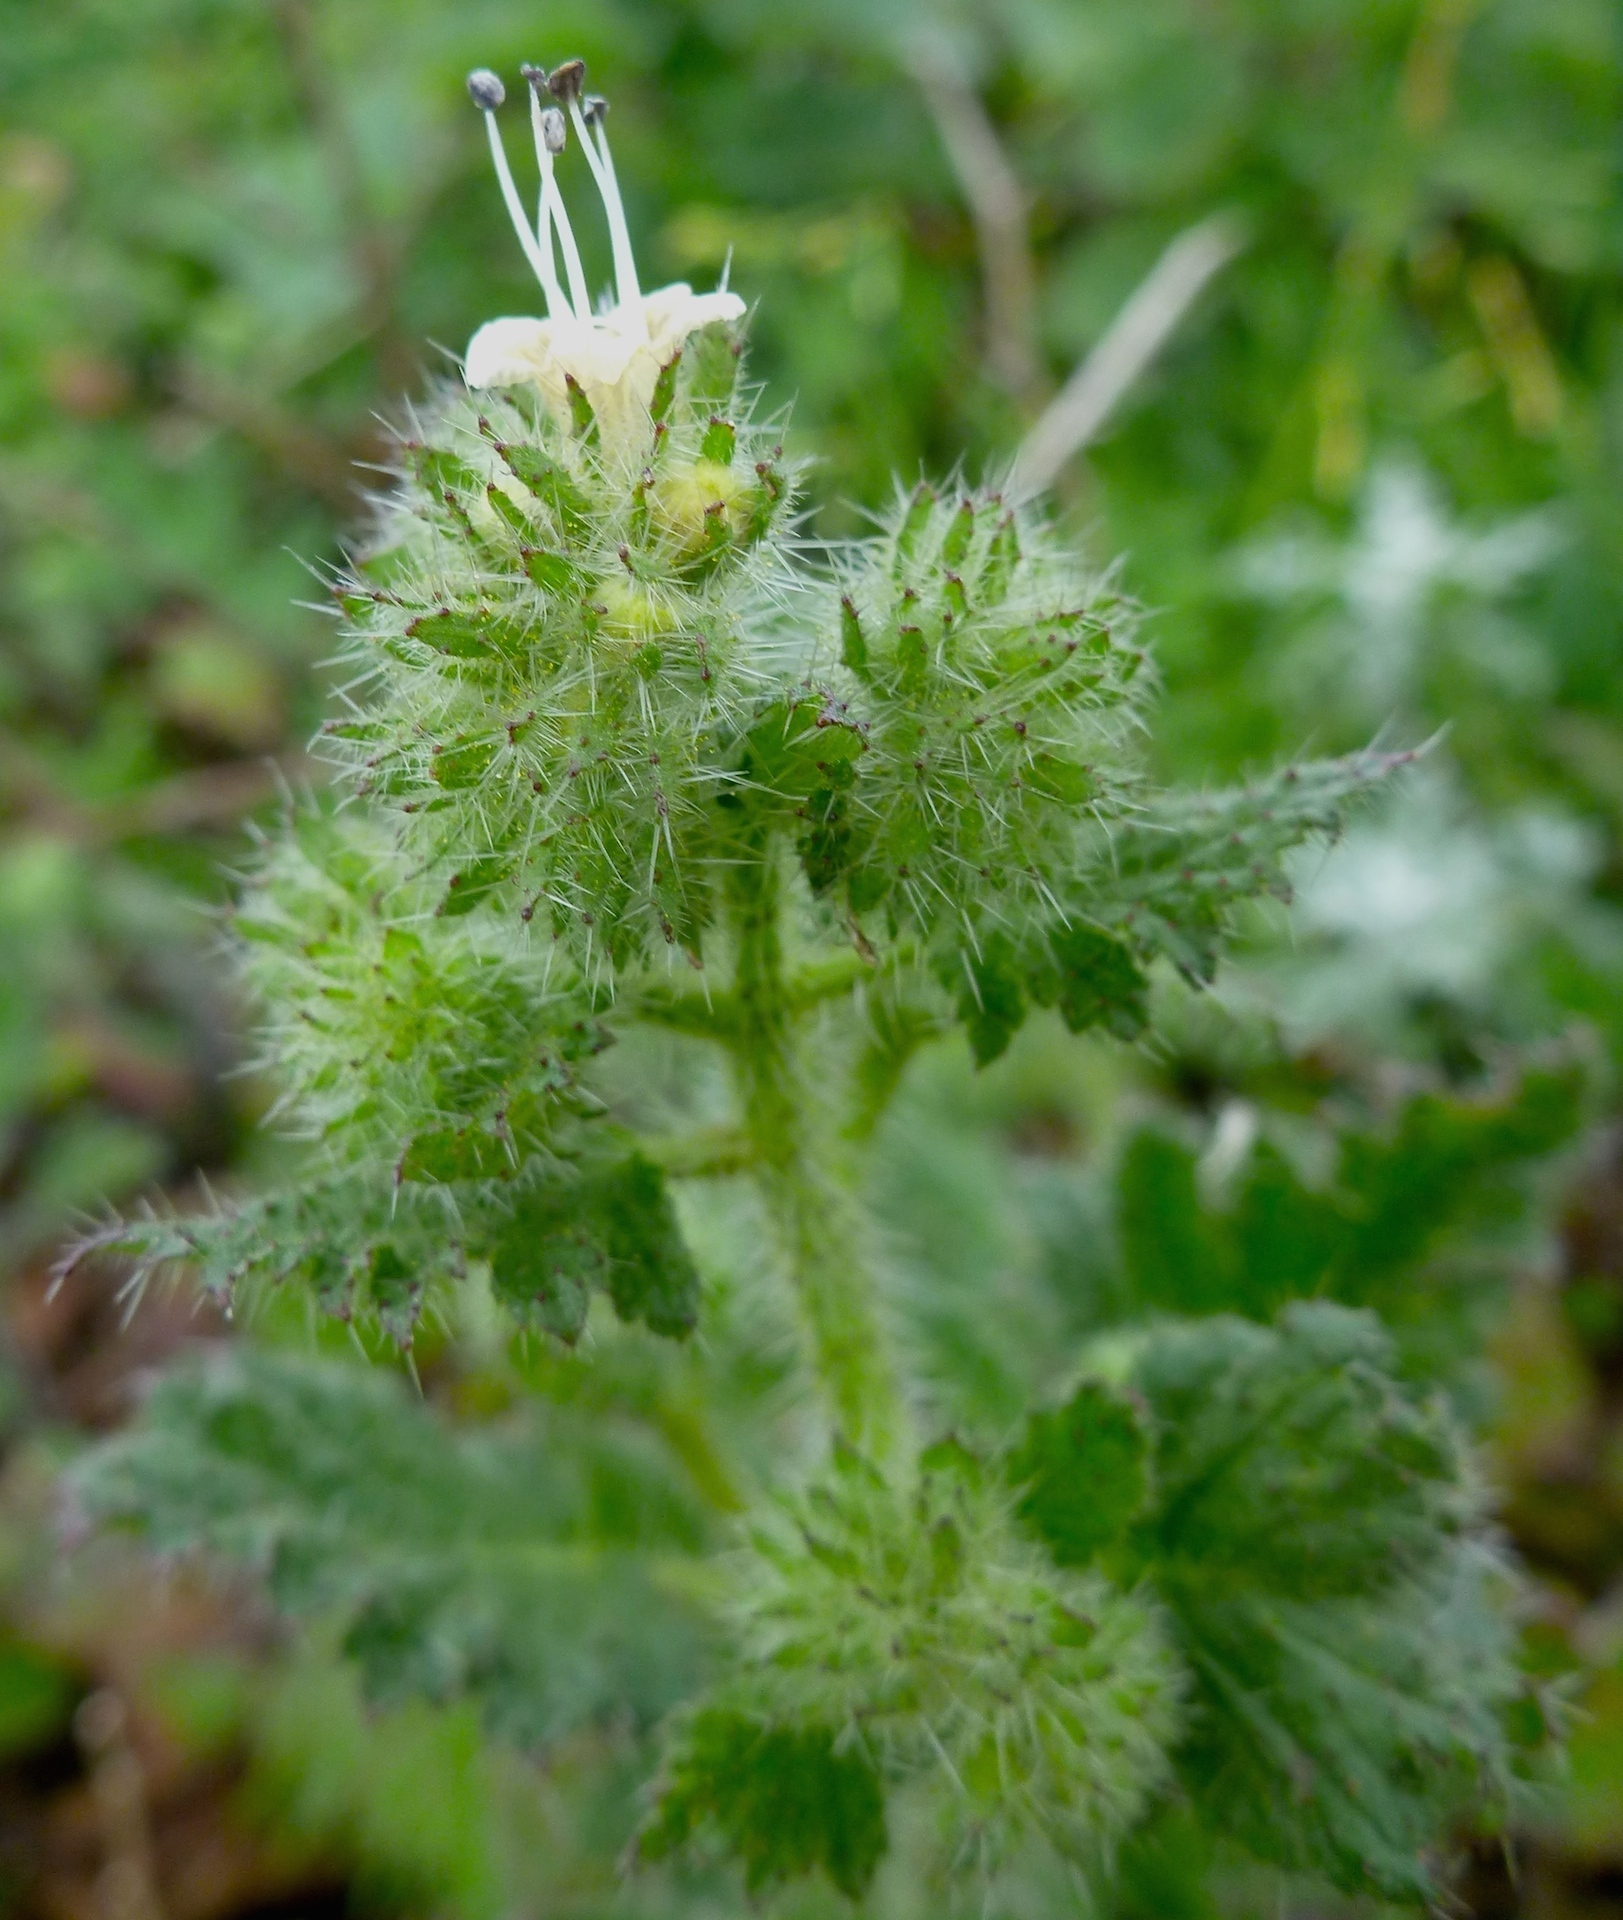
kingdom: Plantae
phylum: Tracheophyta
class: Magnoliopsida
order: Boraginales
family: Hydrophyllaceae
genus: Phacelia
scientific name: Phacelia malvifolia
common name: Mallow-leaf phacelia
